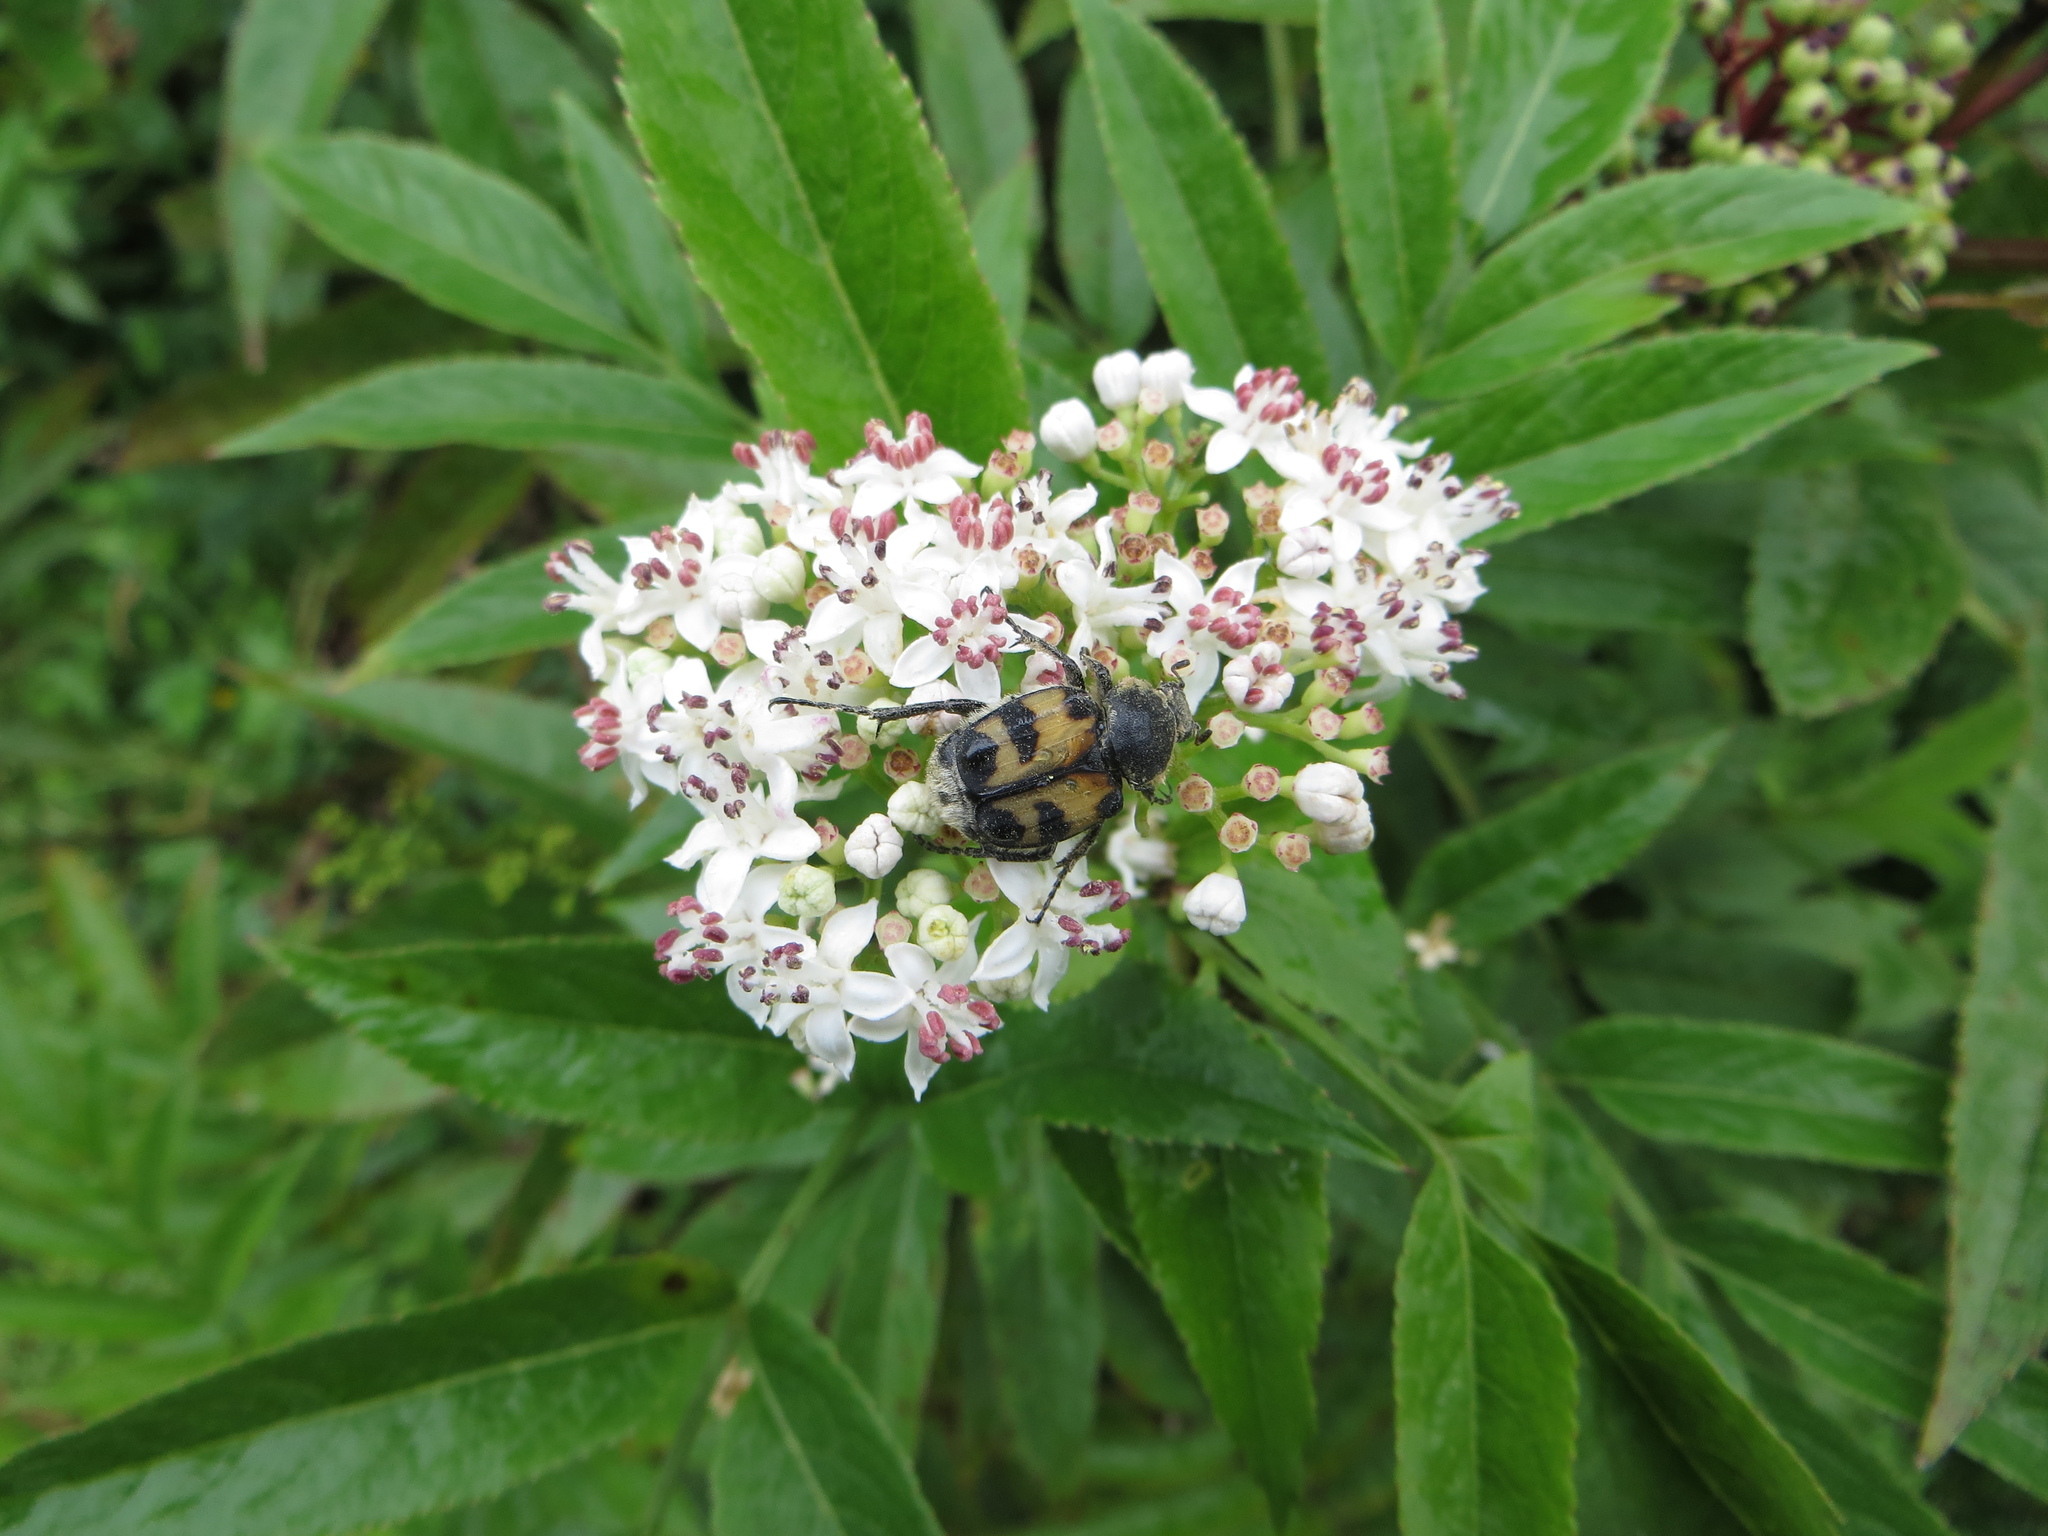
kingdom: Animalia
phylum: Arthropoda
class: Insecta
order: Coleoptera
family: Scarabaeidae
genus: Trichius
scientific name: Trichius fasciatus
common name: Bee beetle
